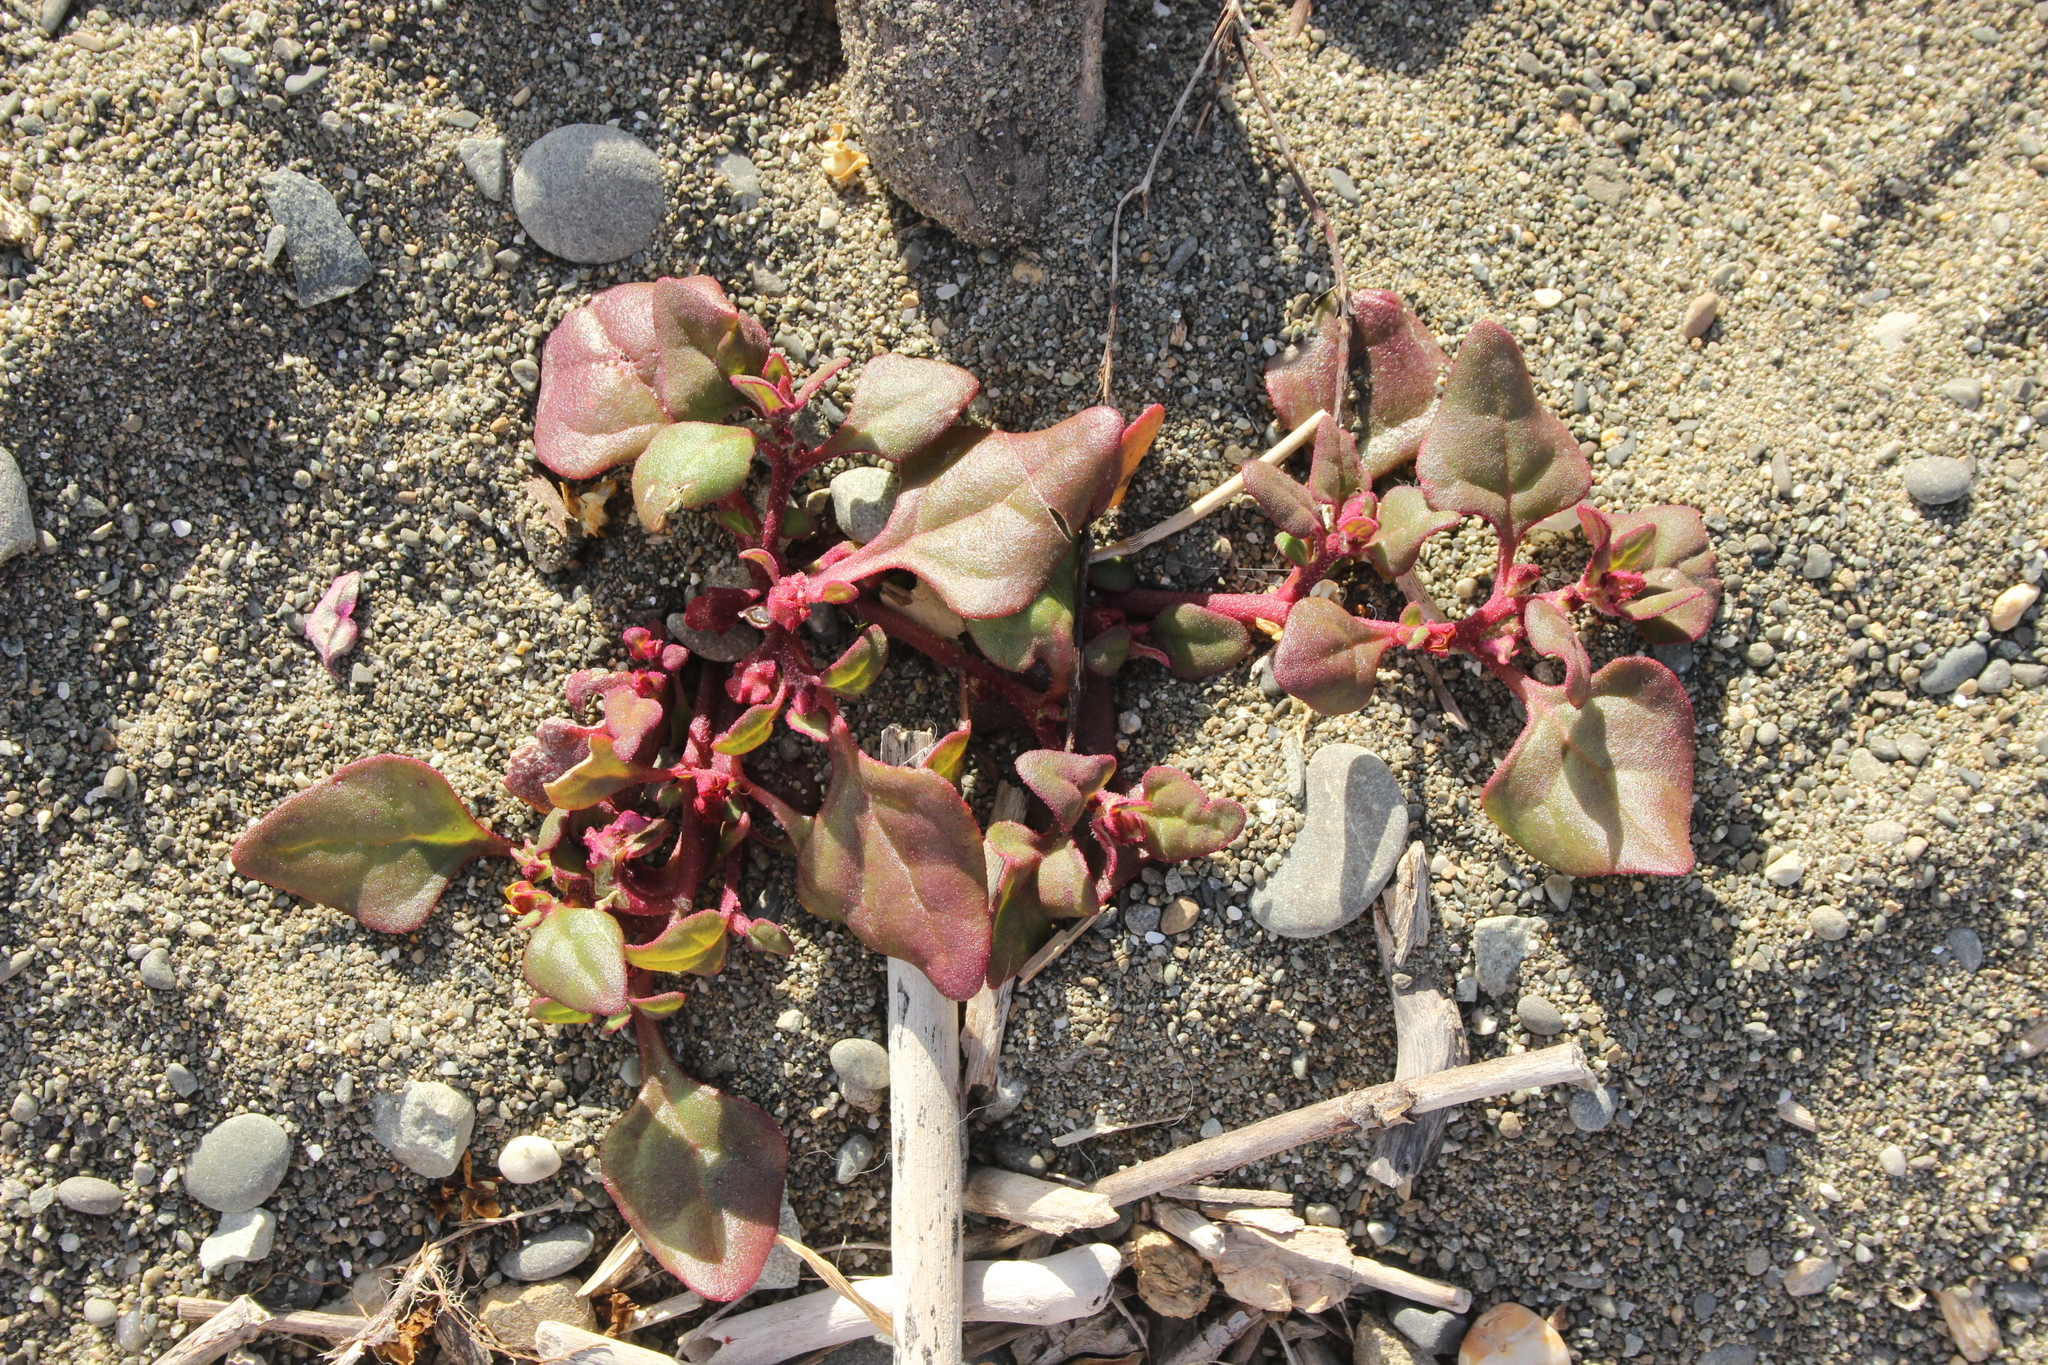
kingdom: Plantae
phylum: Tracheophyta
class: Magnoliopsida
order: Caryophyllales
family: Aizoaceae
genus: Tetragonia
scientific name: Tetragonia tetragonoides
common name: New zealand-spinach
